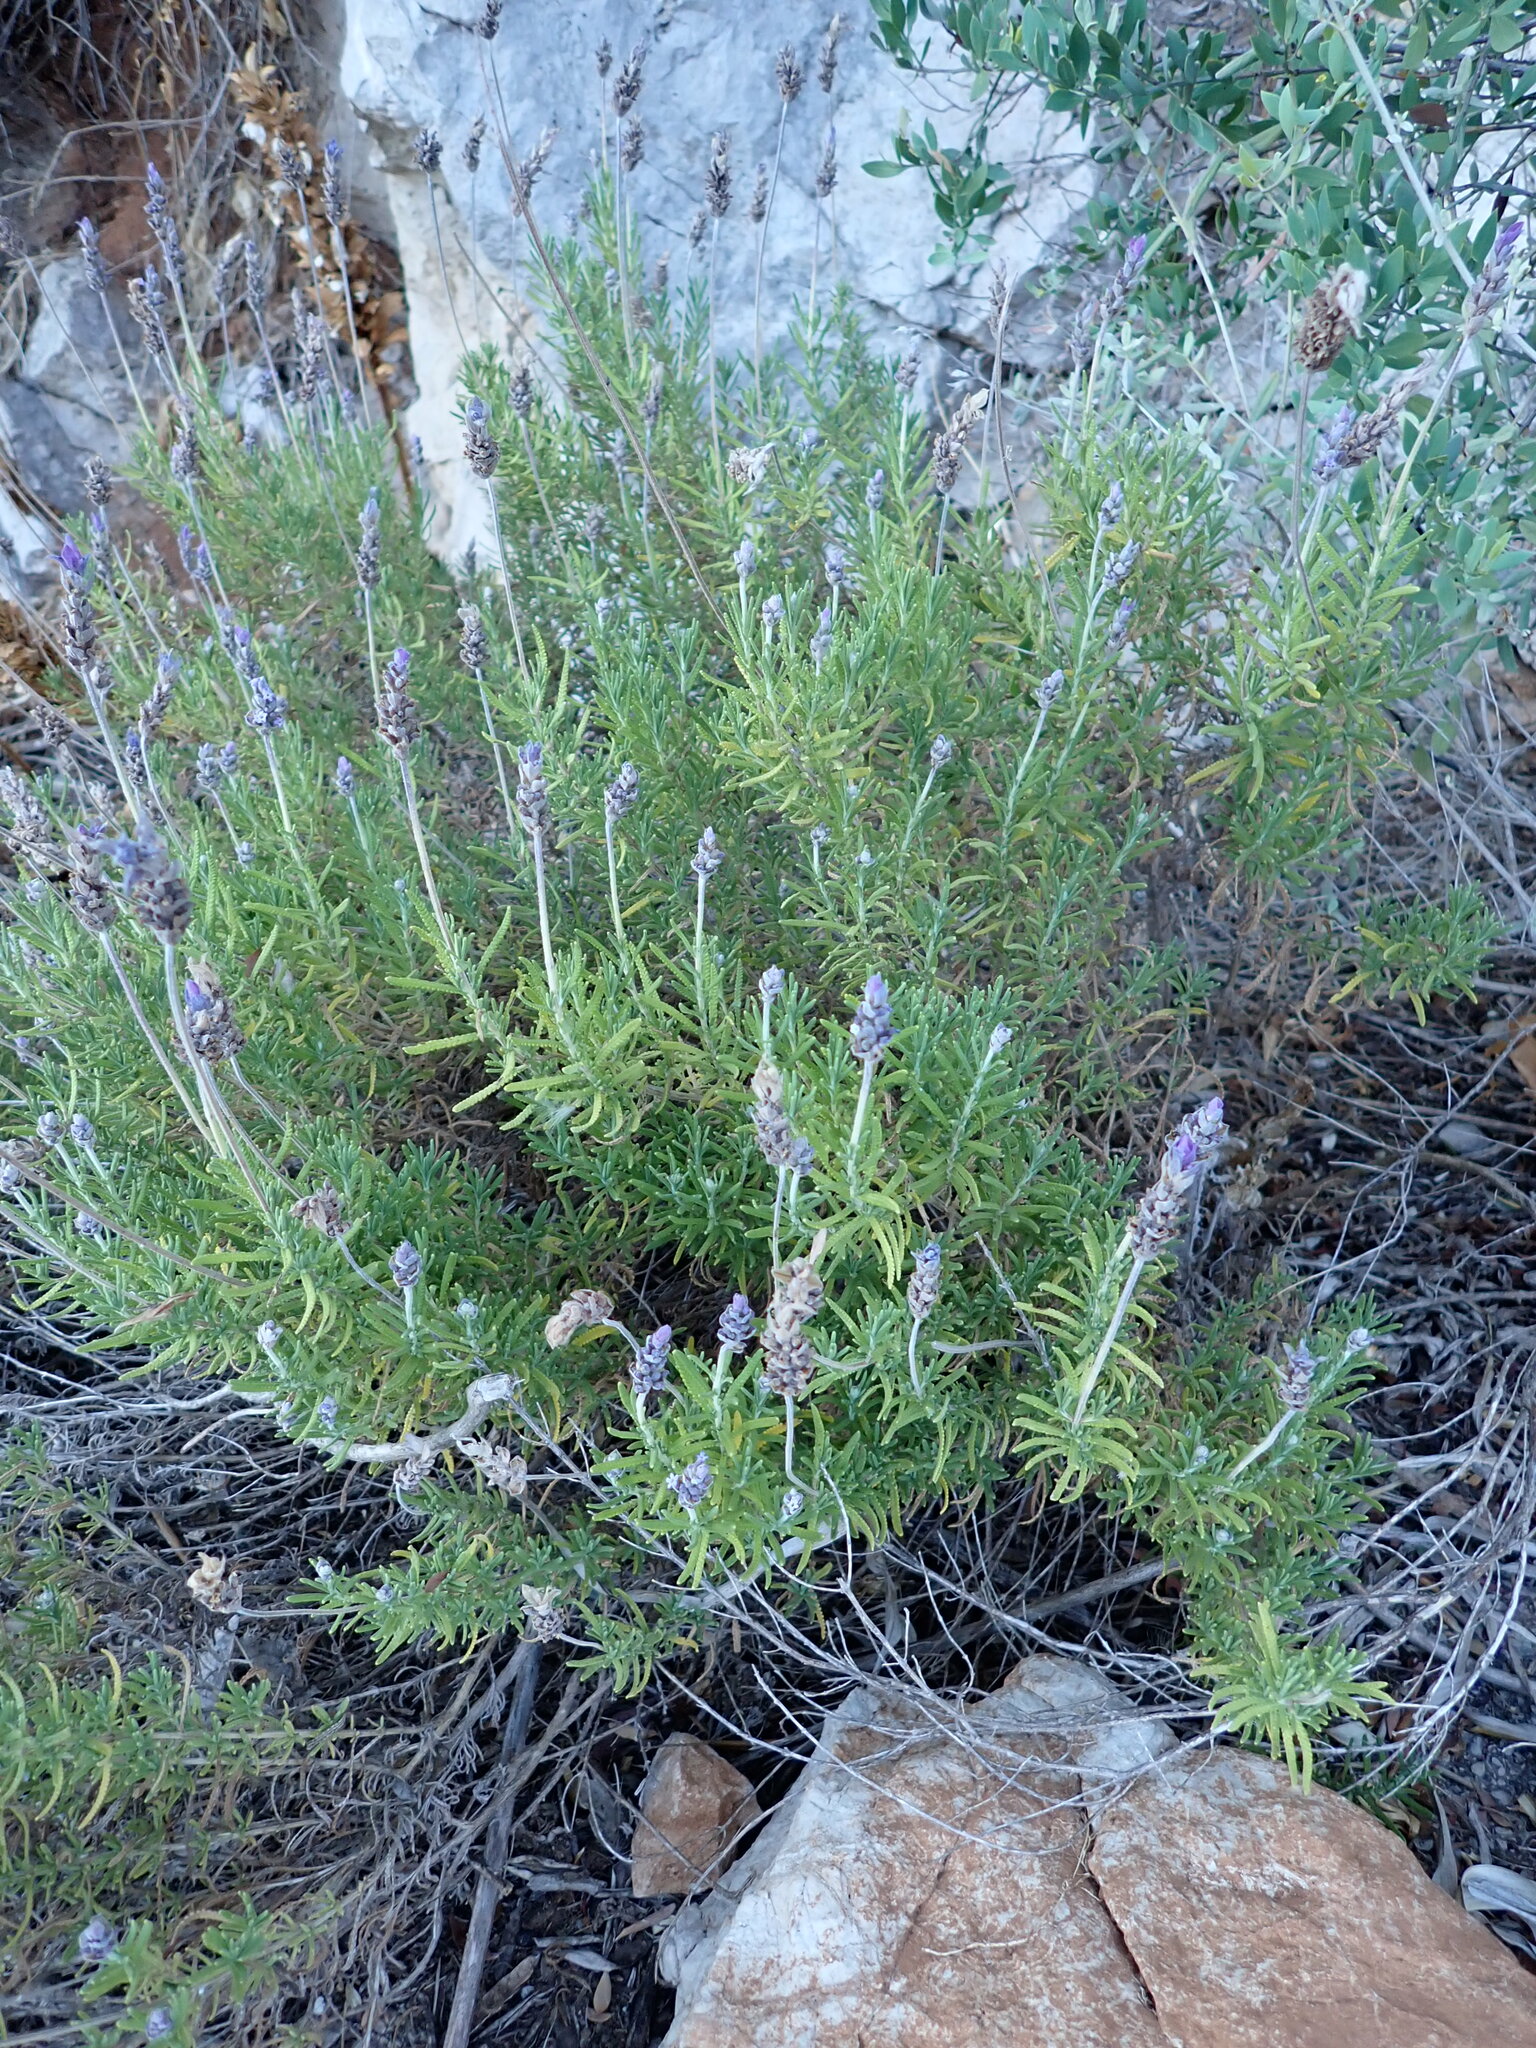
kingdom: Plantae
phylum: Tracheophyta
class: Magnoliopsida
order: Lamiales
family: Lamiaceae
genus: Lavandula
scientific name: Lavandula dentata
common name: French lavender
